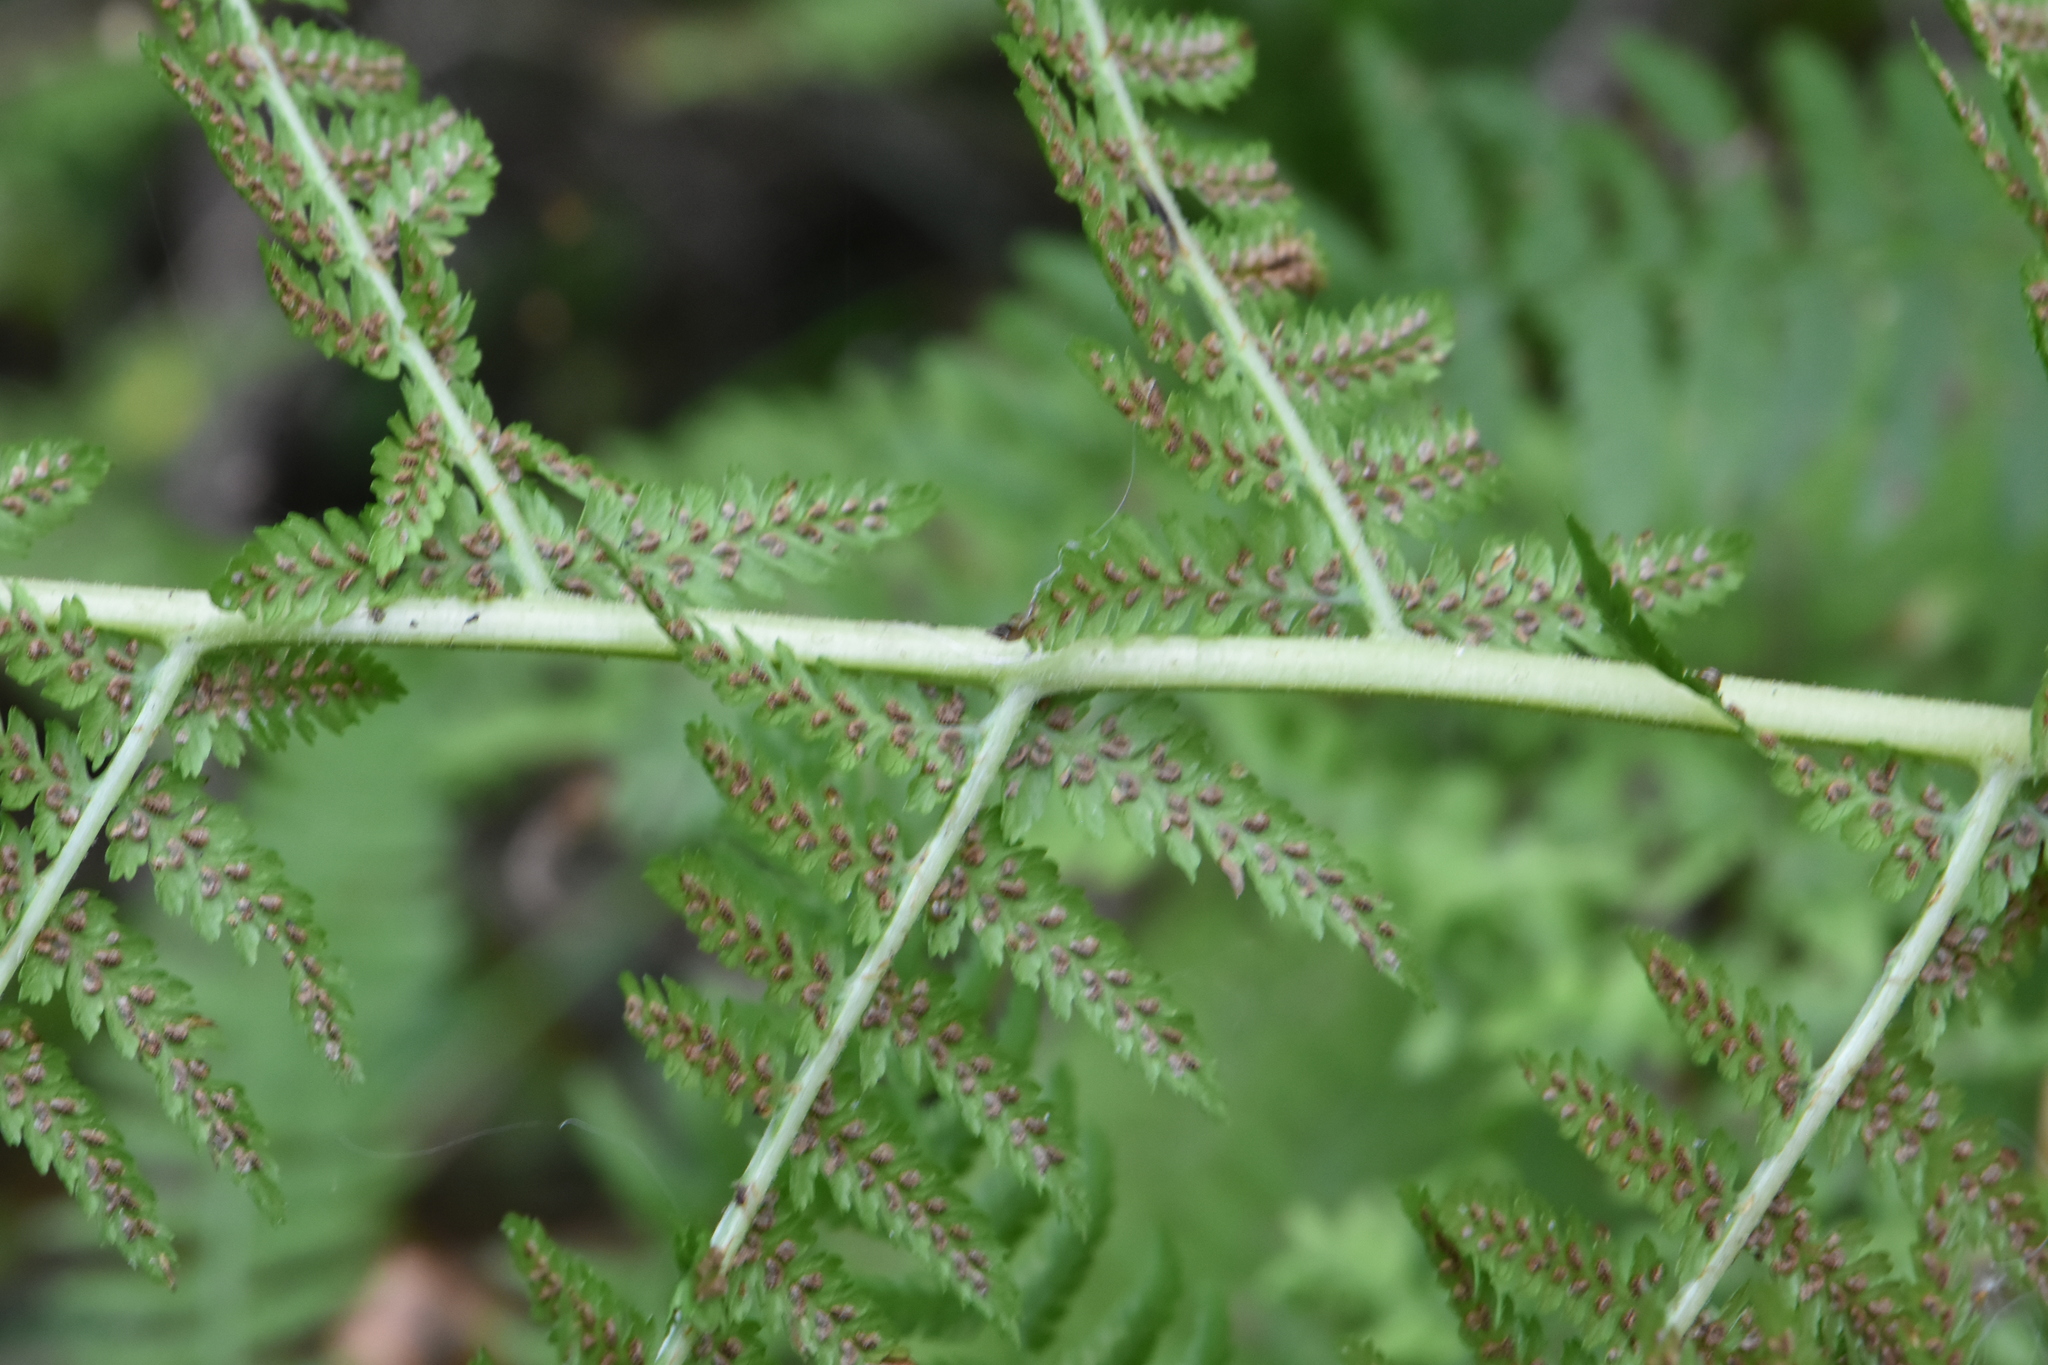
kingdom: Plantae
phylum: Tracheophyta
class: Polypodiopsida
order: Polypodiales
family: Athyriaceae
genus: Athyrium
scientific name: Athyrium filix-femina
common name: Lady fern
